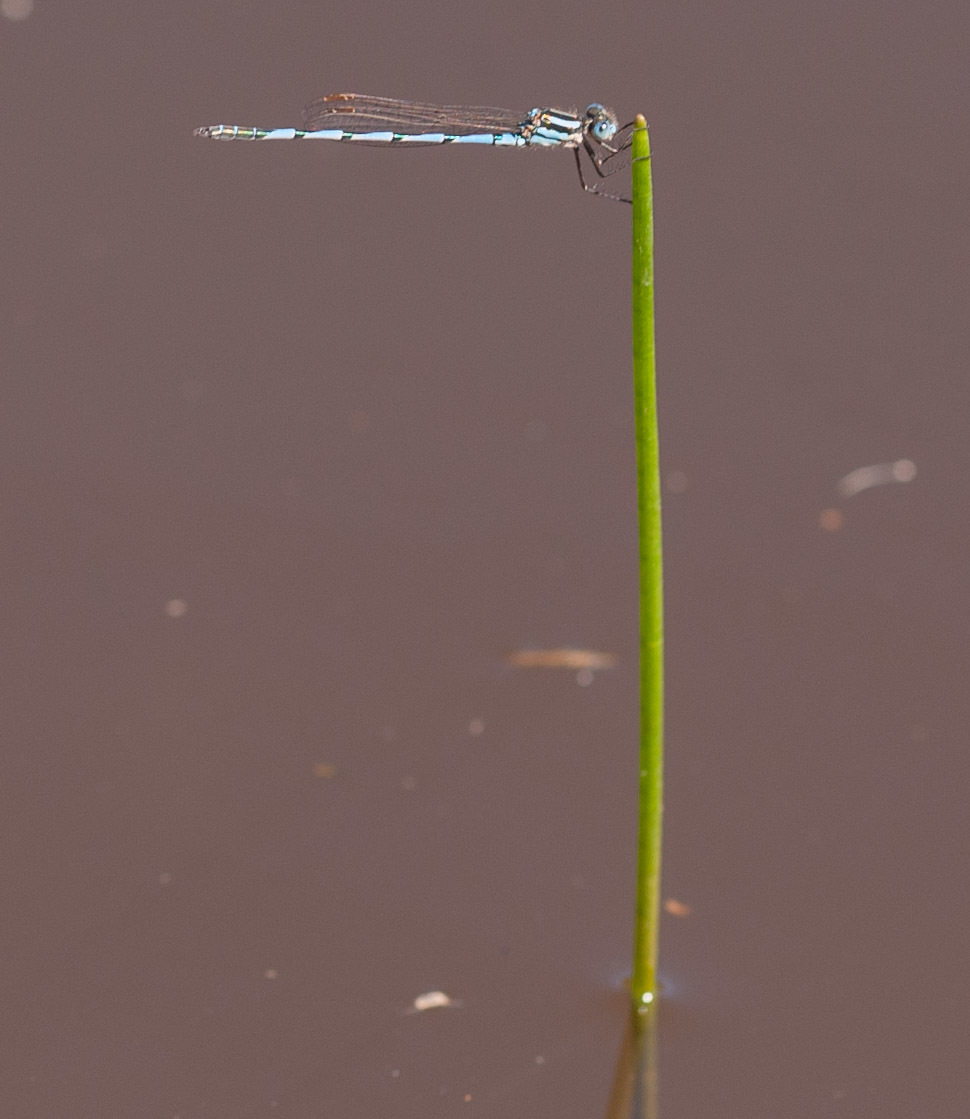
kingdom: Animalia
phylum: Arthropoda
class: Insecta
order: Odonata
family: Lestidae
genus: Austrolestes
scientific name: Austrolestes annulosus
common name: Blue ringtail
